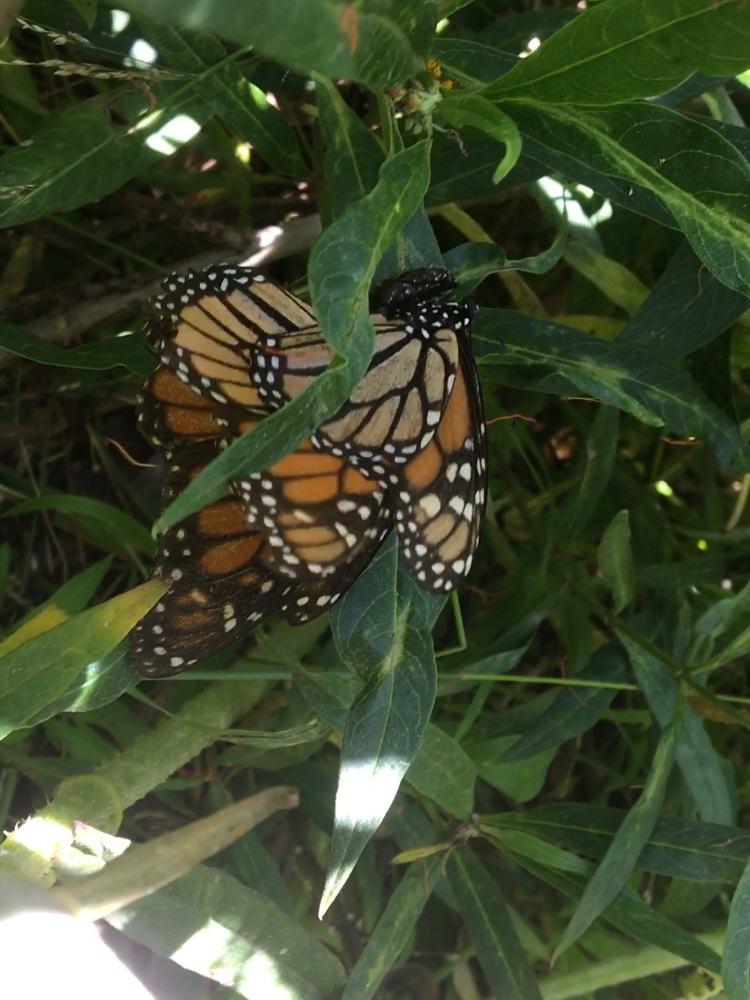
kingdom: Animalia
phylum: Arthropoda
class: Insecta
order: Lepidoptera
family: Nymphalidae
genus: Danaus
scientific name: Danaus plexippus
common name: Monarch
